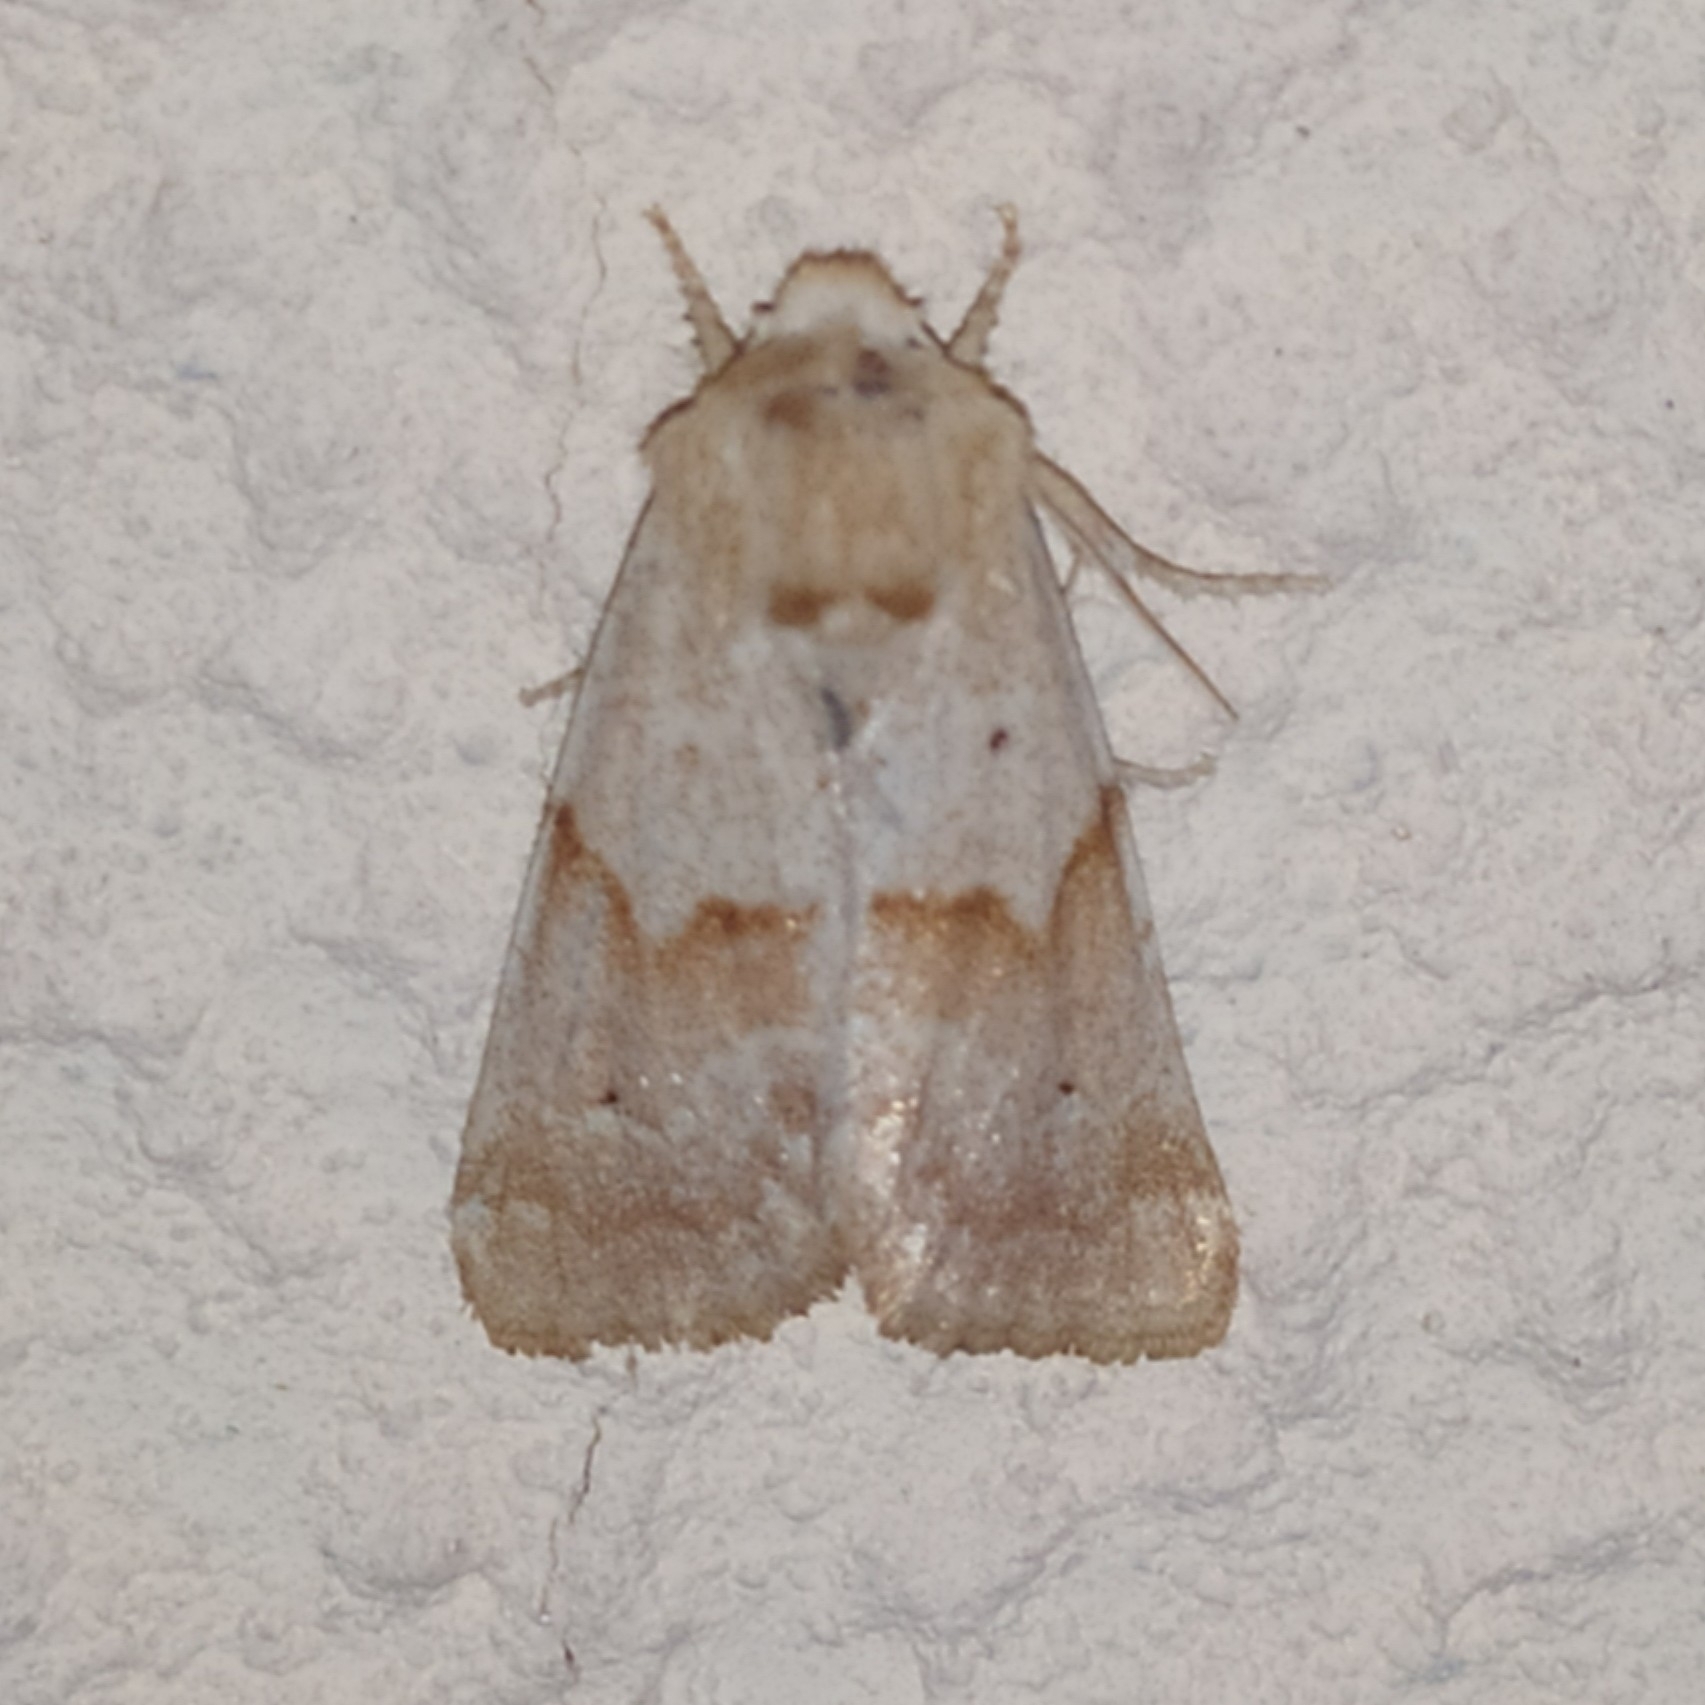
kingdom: Animalia
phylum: Arthropoda
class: Insecta
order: Lepidoptera
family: Noctuidae
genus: Mycteroplus
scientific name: Mycteroplus puniceago
